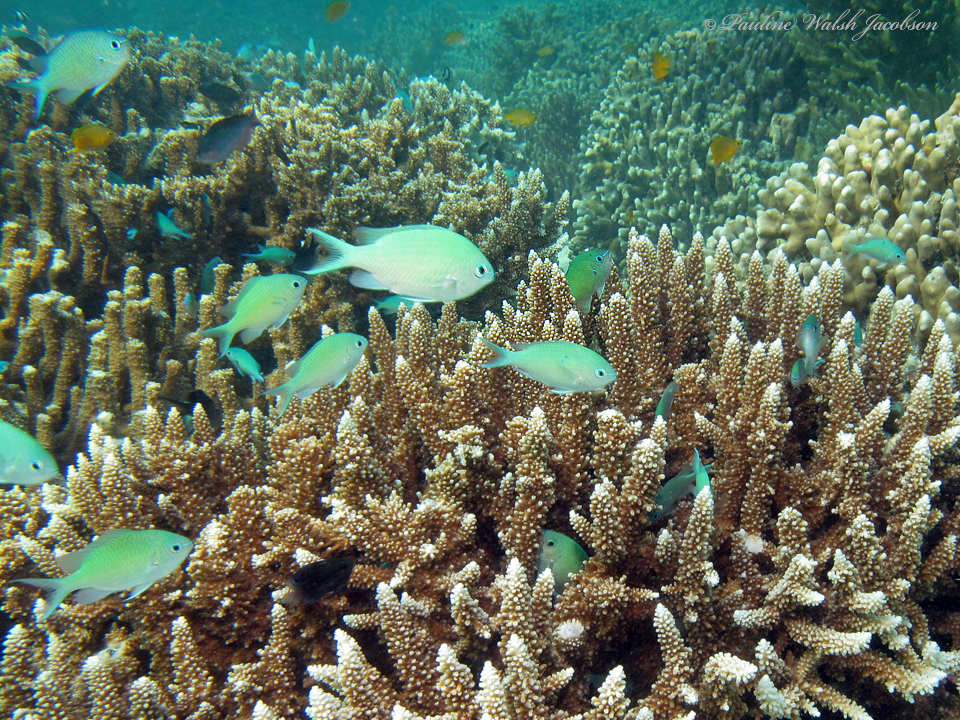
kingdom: Animalia
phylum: Chordata
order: Perciformes
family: Pomacentridae
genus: Chromis
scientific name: Chromis viridis
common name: Blue-green chromis
